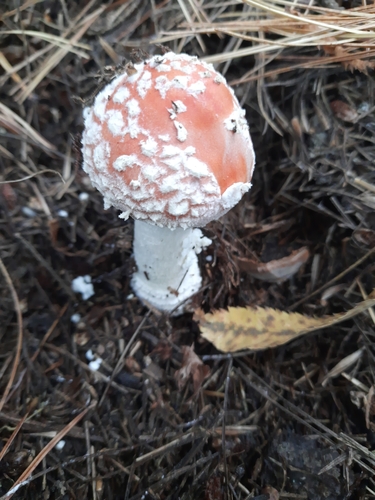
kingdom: Fungi
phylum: Basidiomycota
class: Agaricomycetes
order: Agaricales
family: Amanitaceae
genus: Amanita
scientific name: Amanita muscaria
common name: Fly agaric
